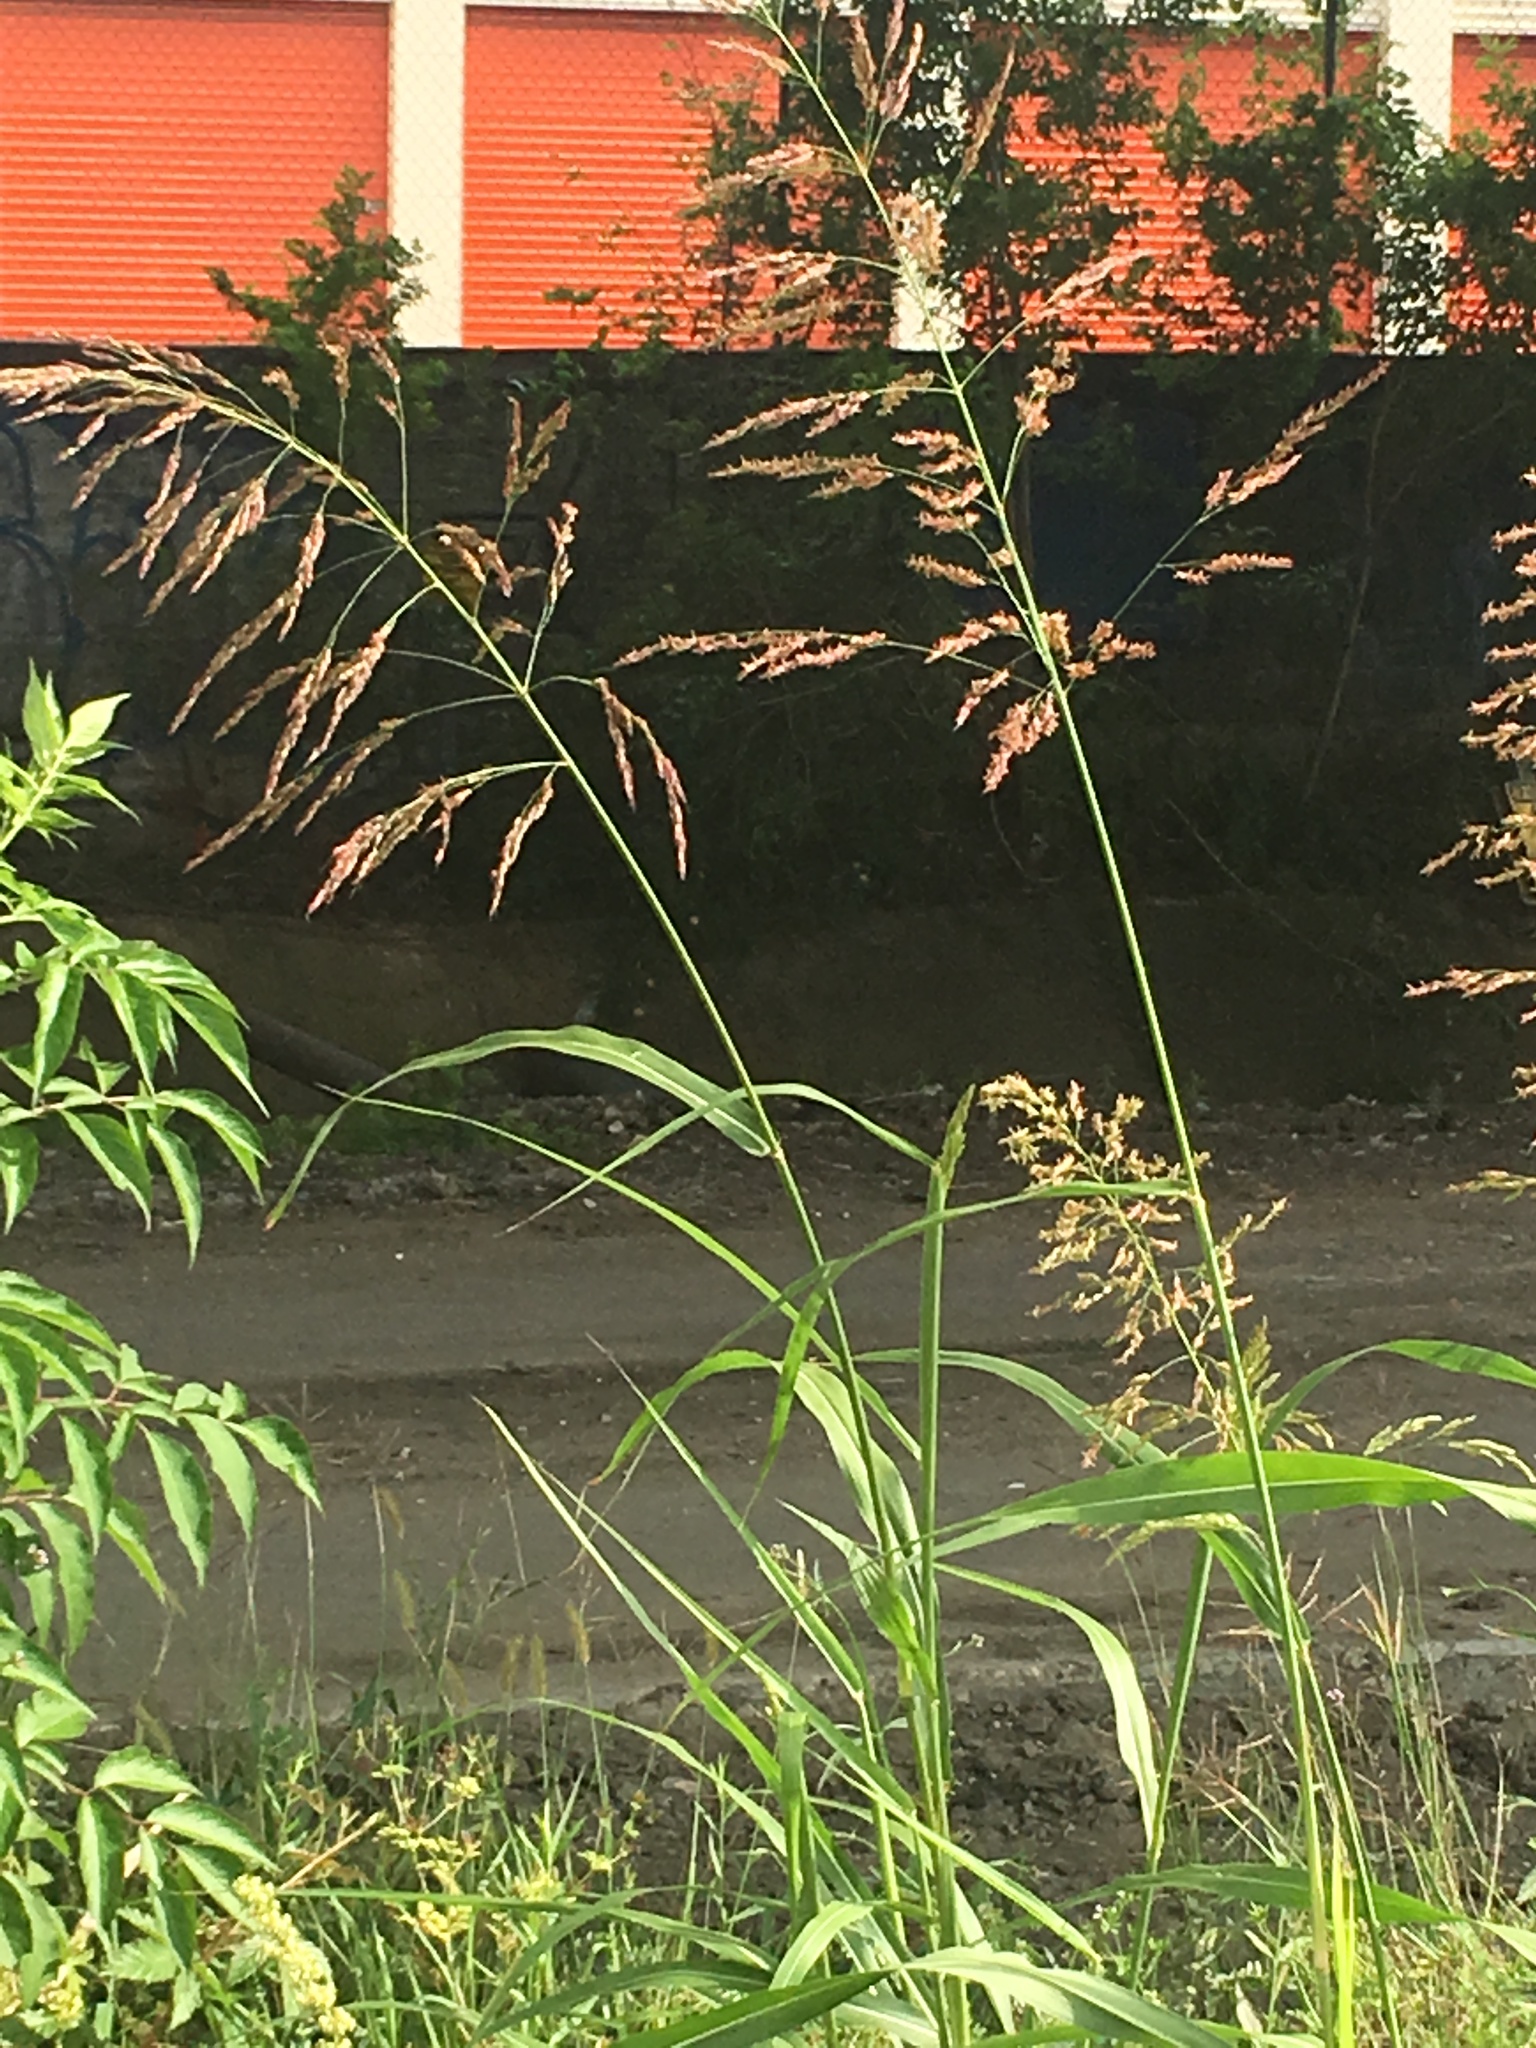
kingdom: Plantae
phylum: Tracheophyta
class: Liliopsida
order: Poales
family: Poaceae
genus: Sorghum
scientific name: Sorghum halepense
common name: Johnson-grass
